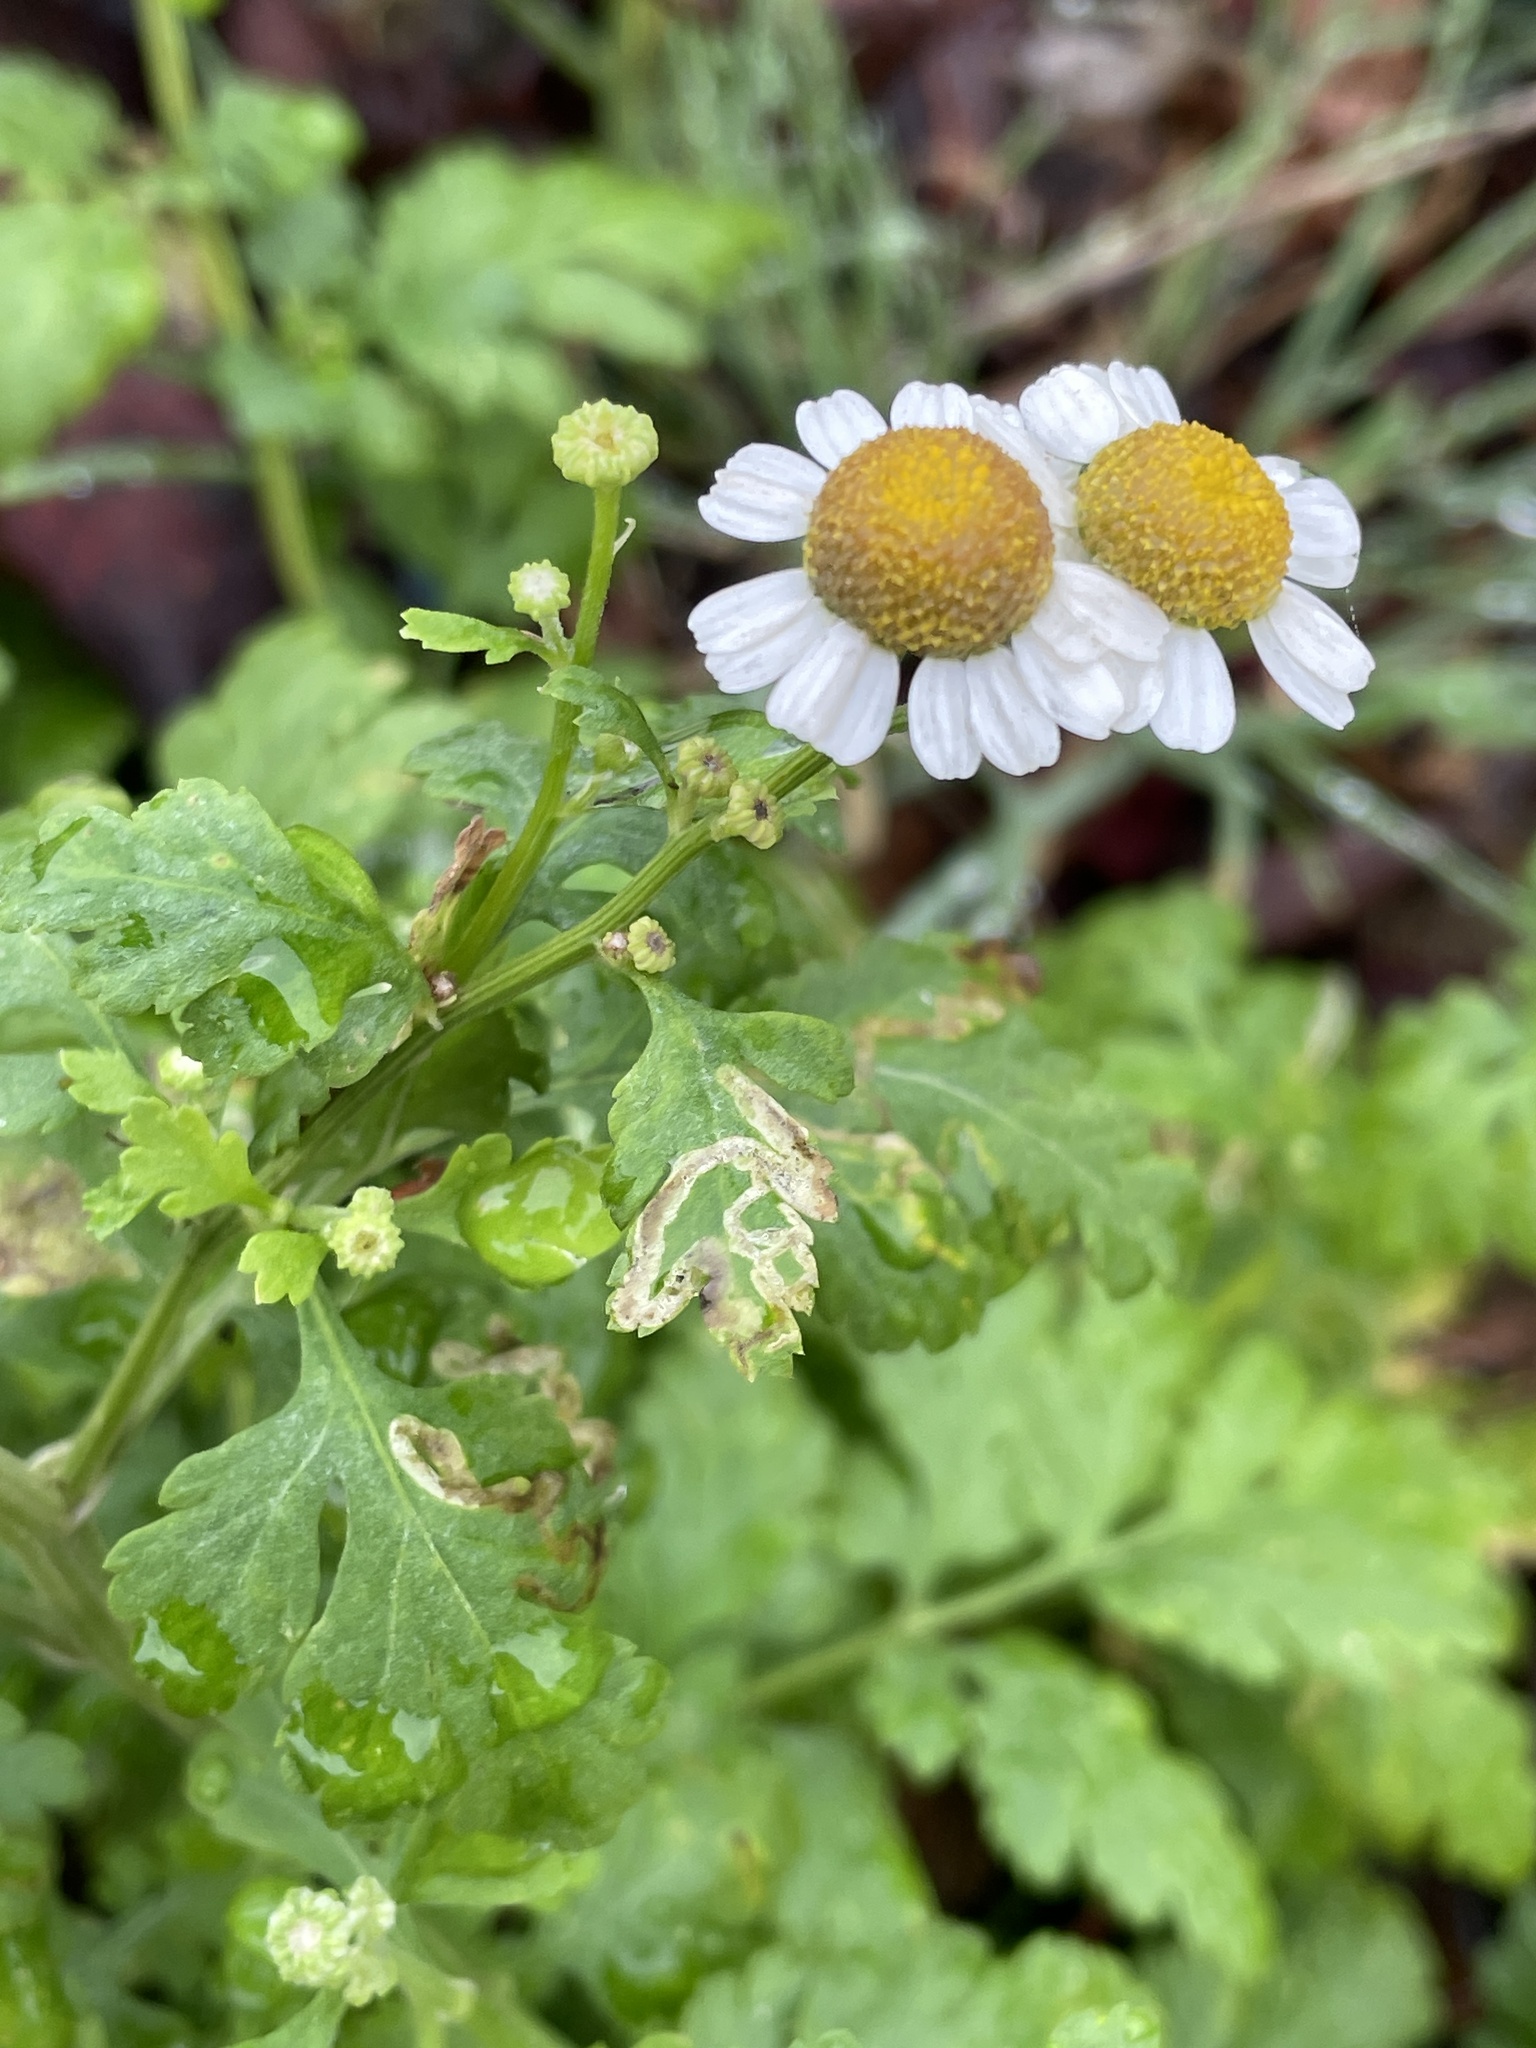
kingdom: Plantae
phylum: Tracheophyta
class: Magnoliopsida
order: Asterales
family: Asteraceae
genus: Tanacetum
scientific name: Tanacetum parthenium
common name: Feverfew
